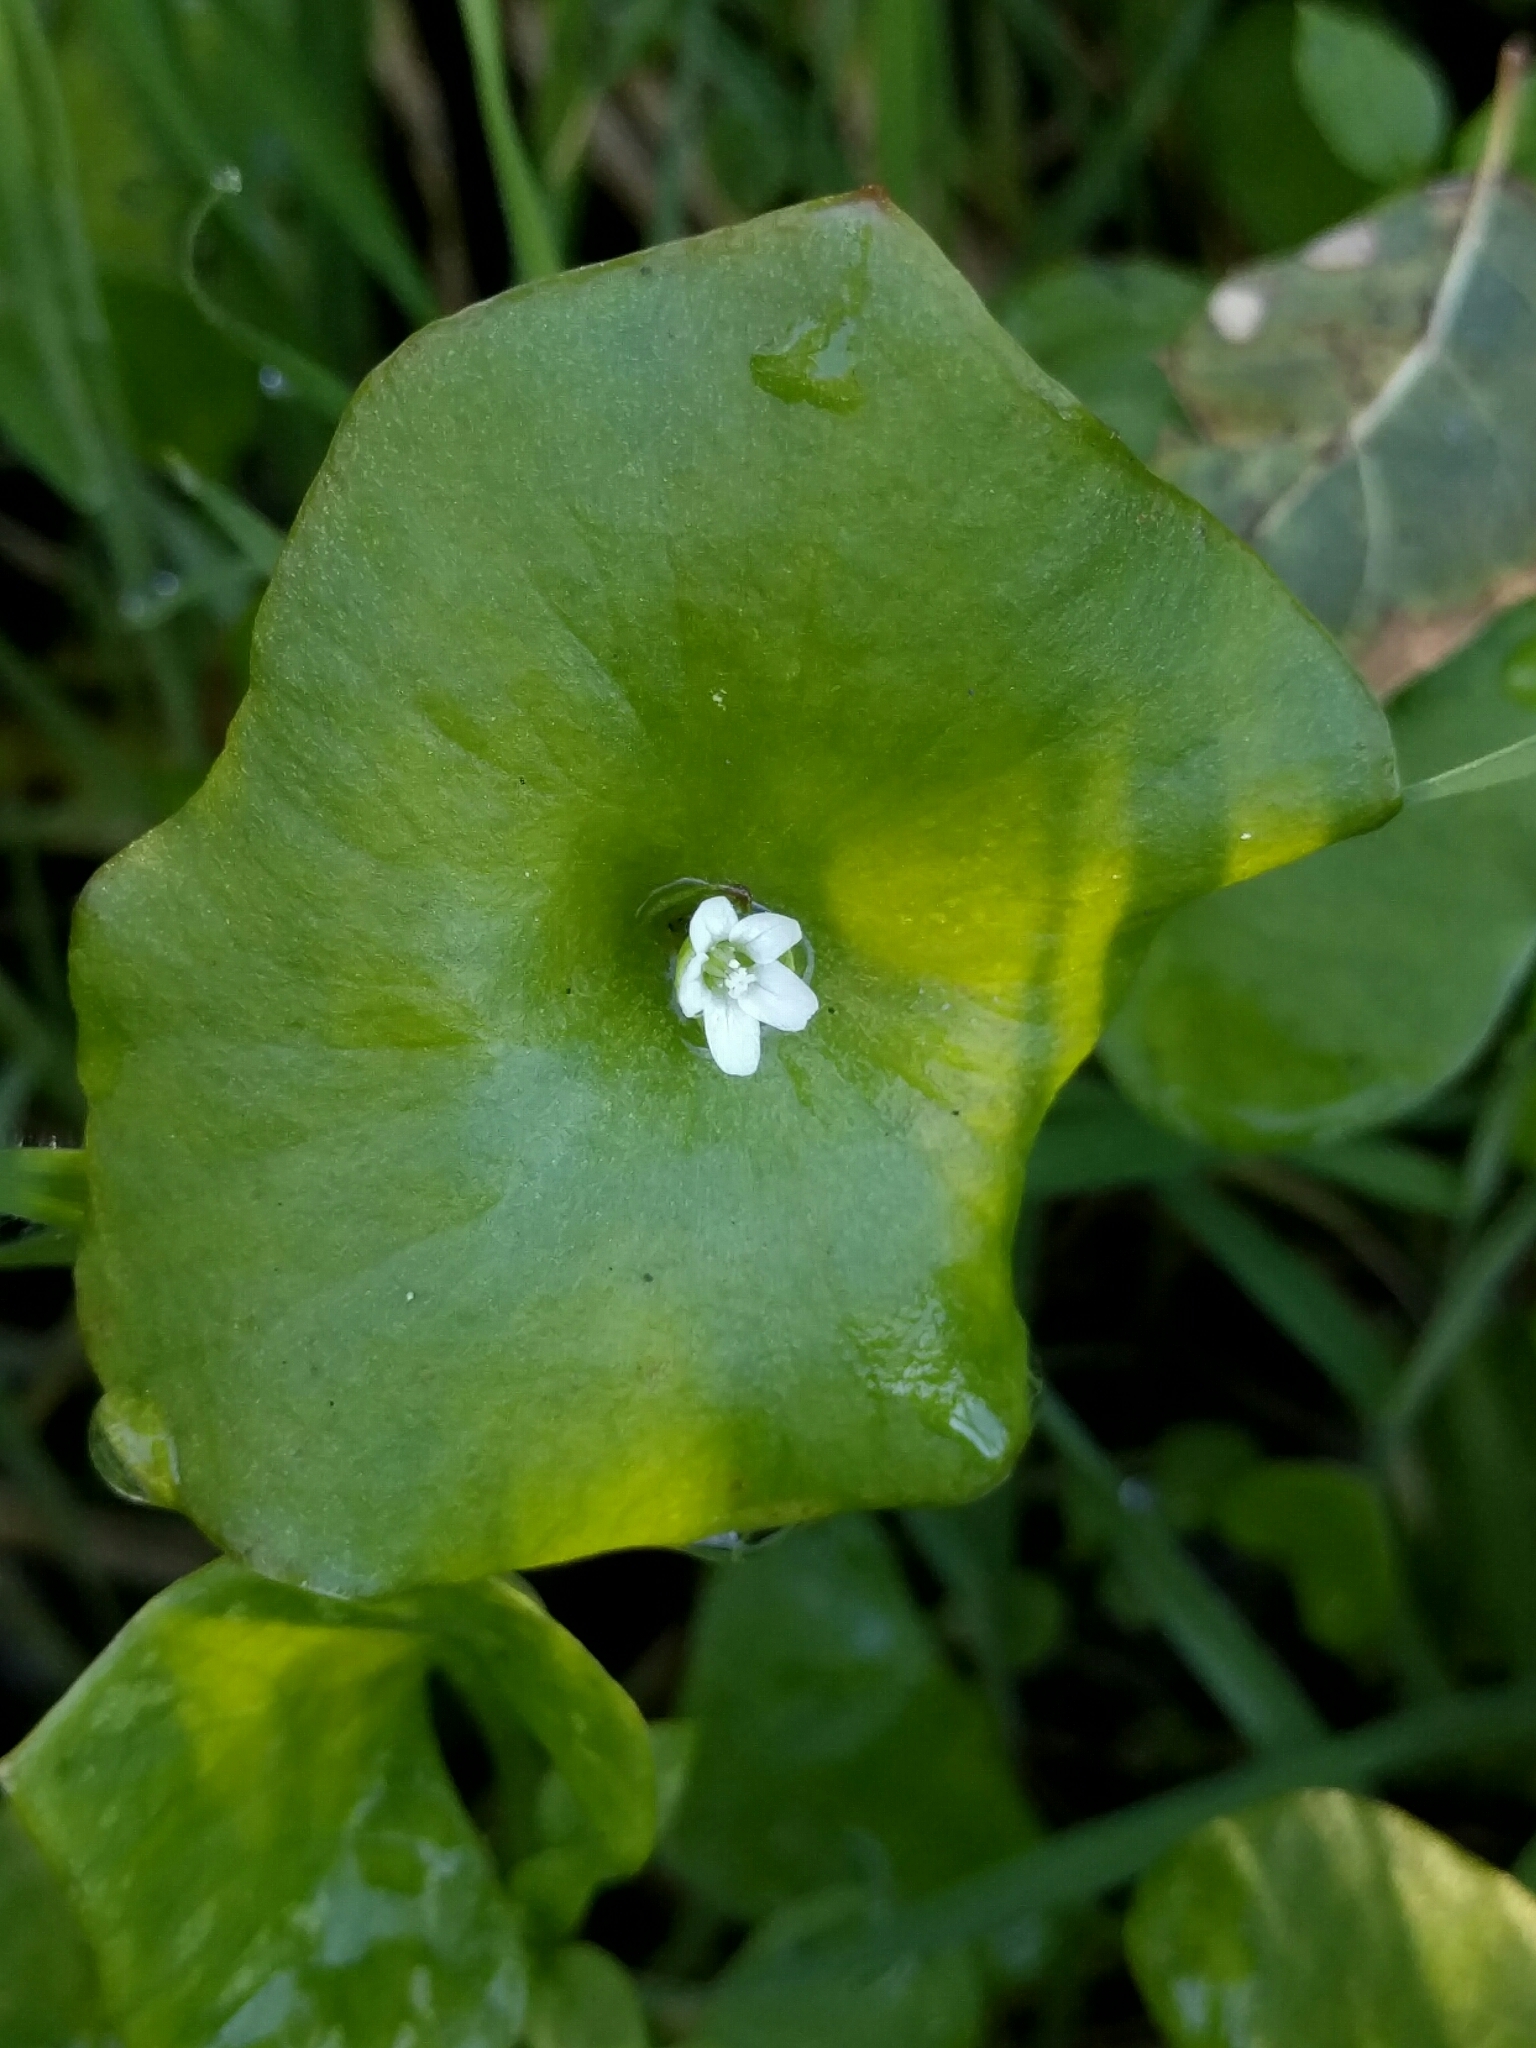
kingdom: Plantae
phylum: Tracheophyta
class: Magnoliopsida
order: Caryophyllales
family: Montiaceae
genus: Claytonia
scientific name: Claytonia perfoliata
